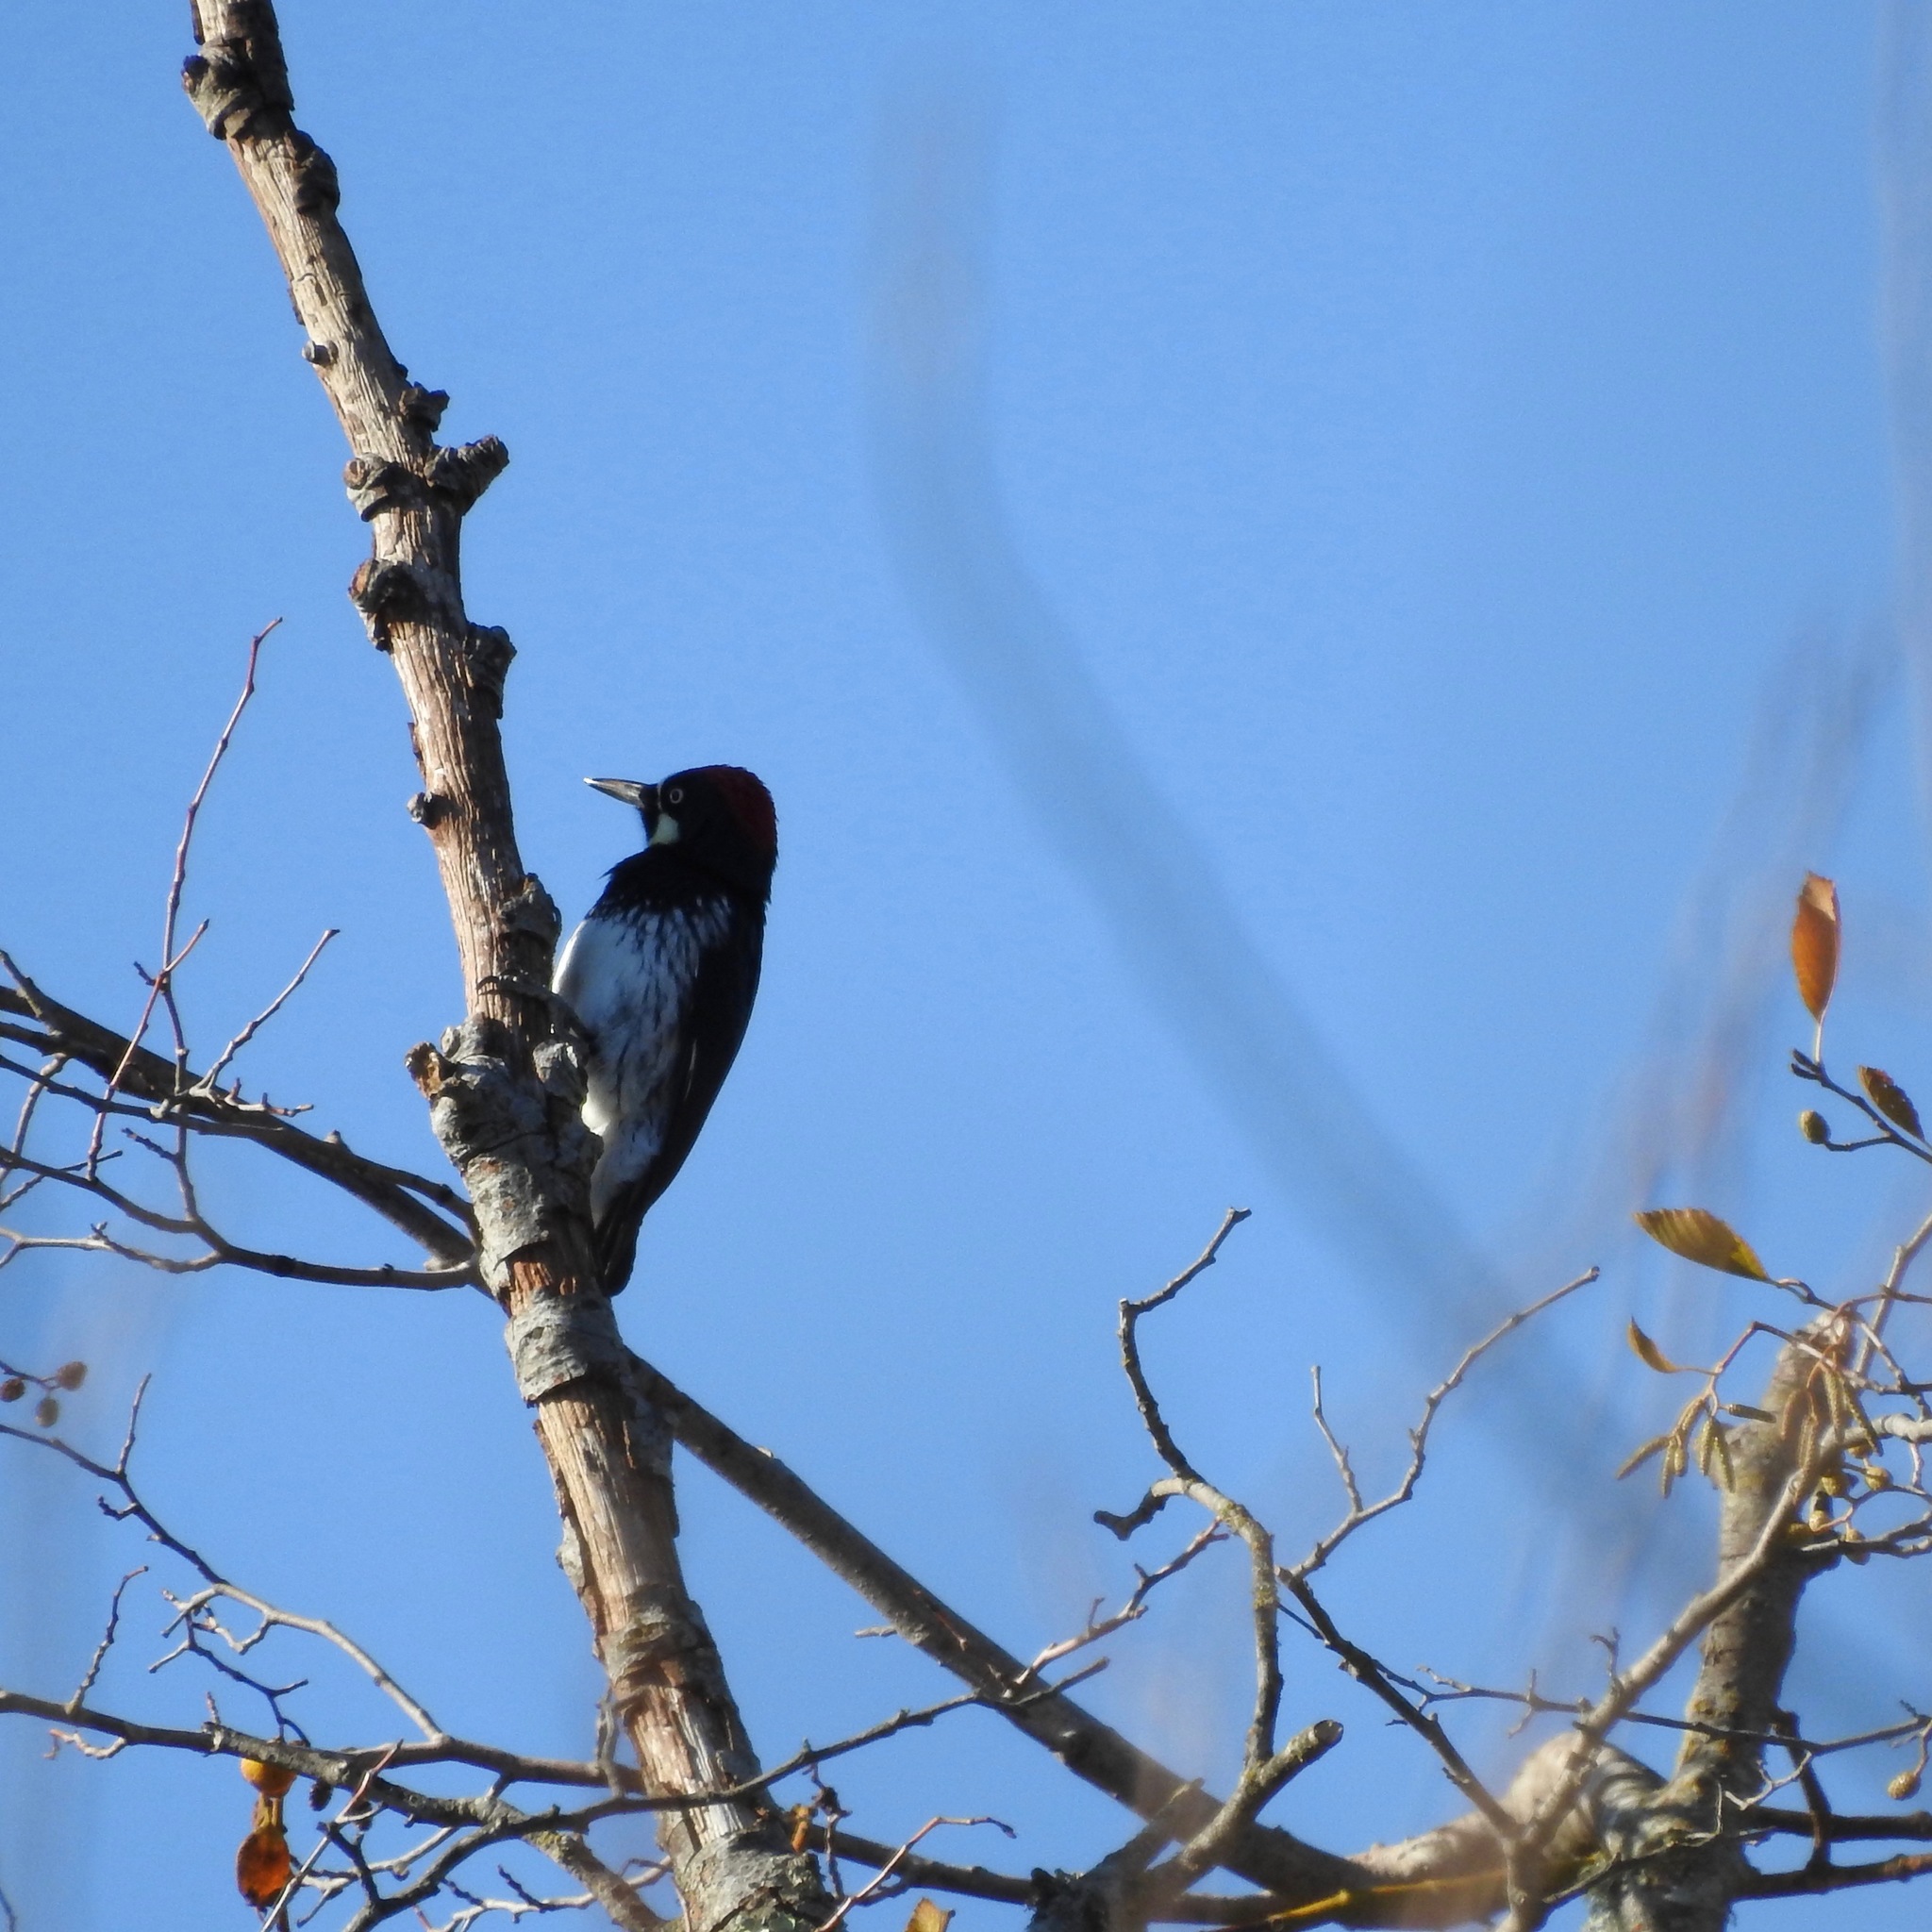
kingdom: Animalia
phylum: Chordata
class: Aves
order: Piciformes
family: Picidae
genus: Melanerpes
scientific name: Melanerpes formicivorus
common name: Acorn woodpecker
